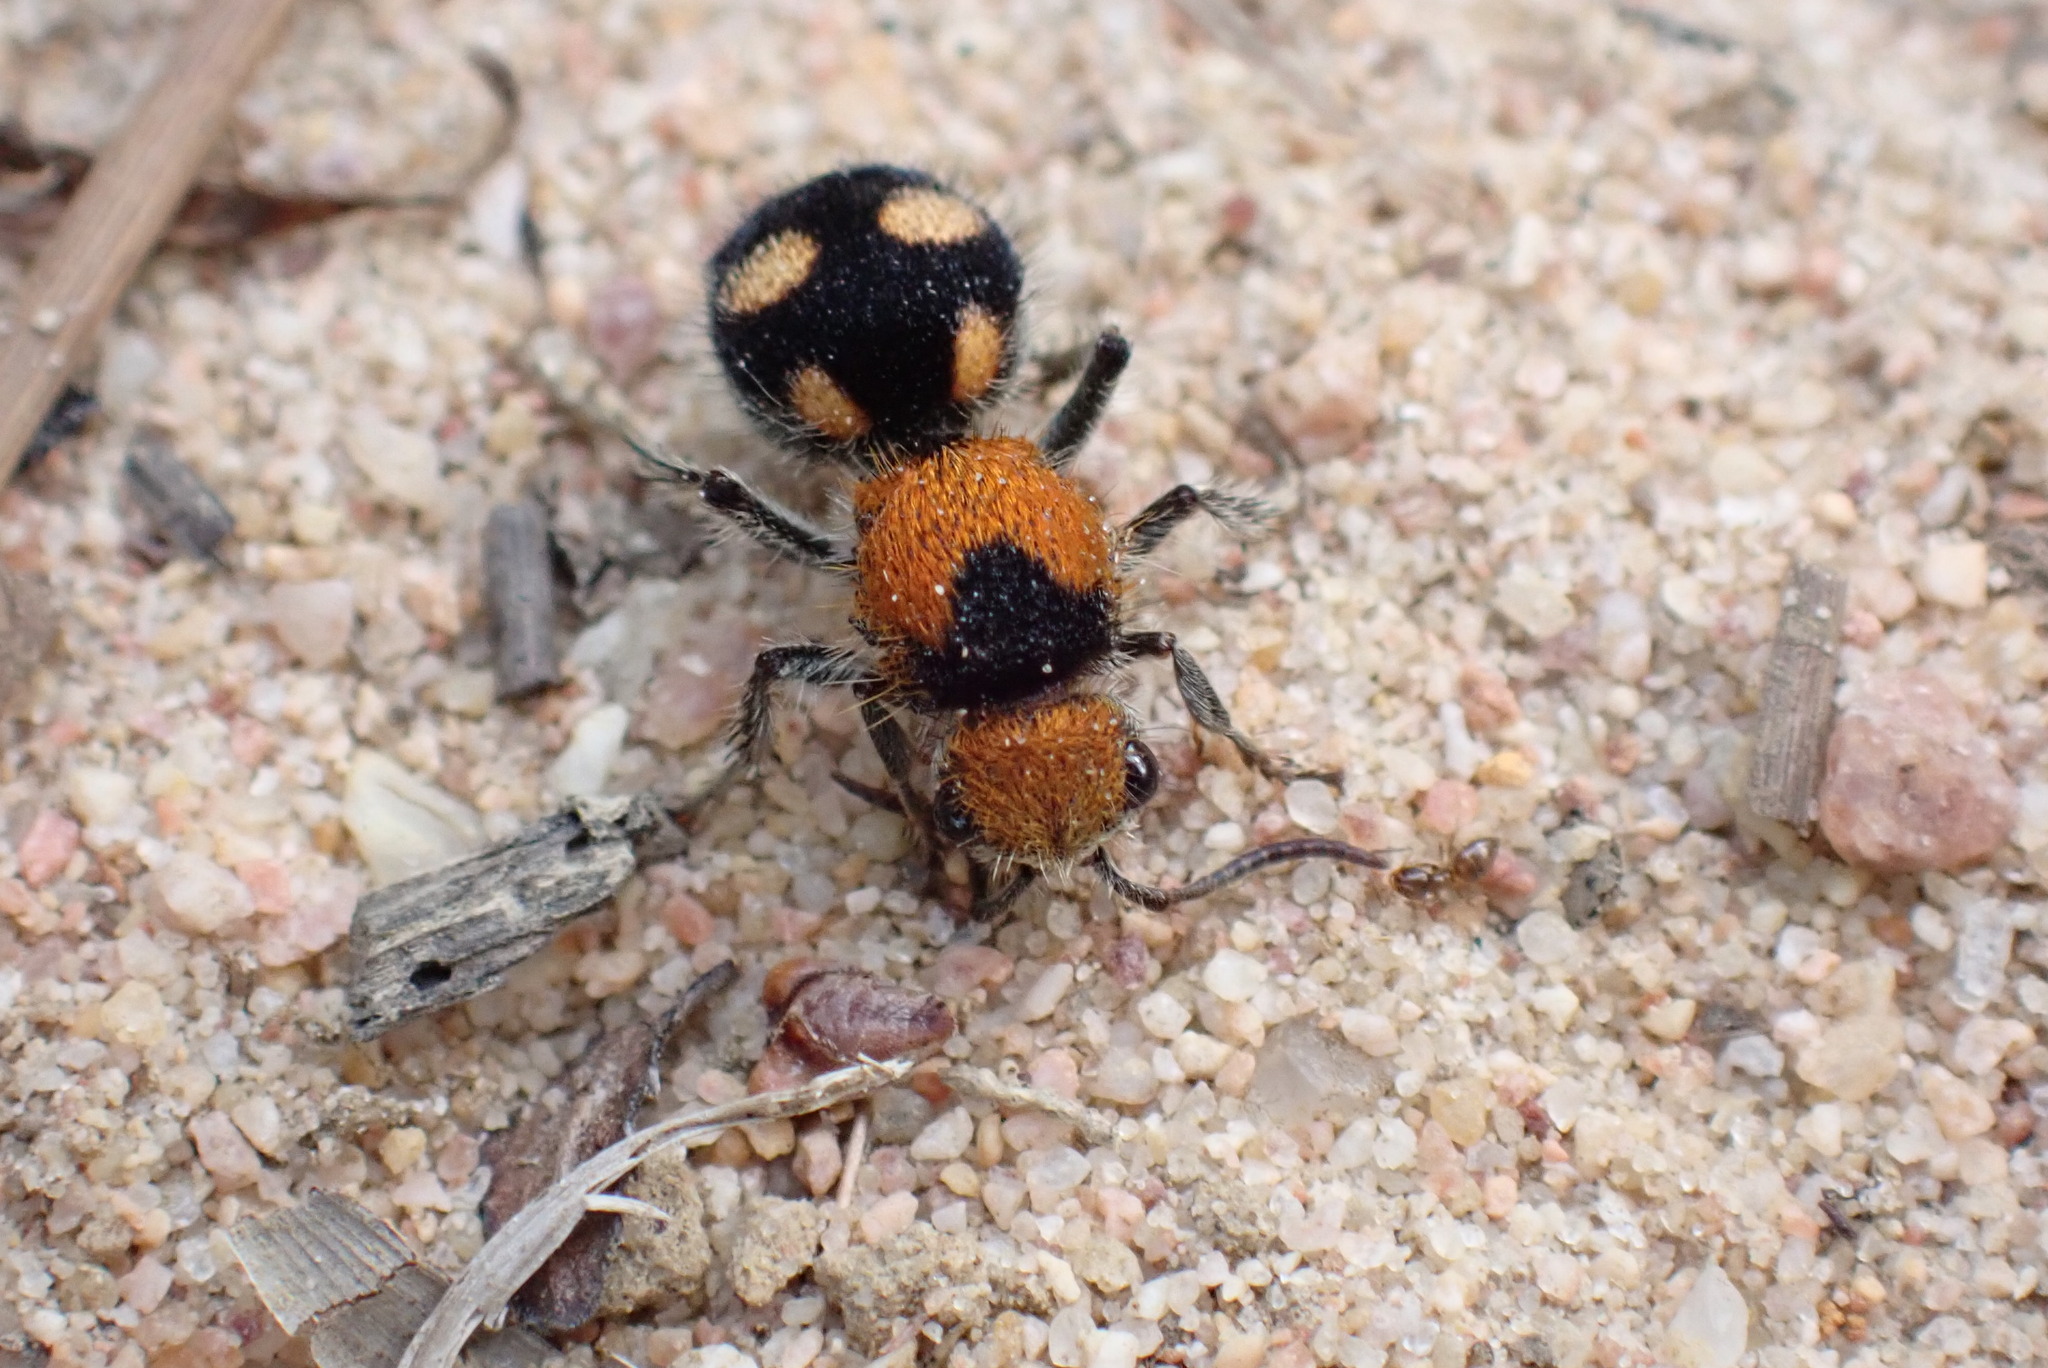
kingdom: Animalia
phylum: Arthropoda
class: Insecta
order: Hymenoptera
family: Mutillidae
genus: Dasymutilla
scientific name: Dasymutilla
